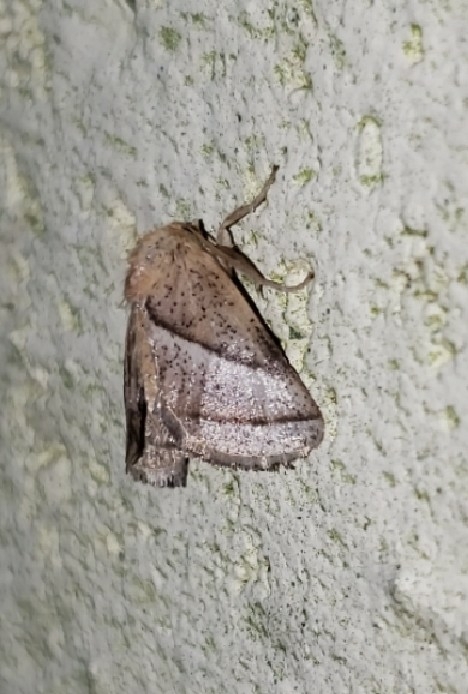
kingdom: Animalia
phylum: Arthropoda
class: Insecta
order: Lepidoptera
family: Limacodidae
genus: Natada
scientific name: Natada nasoni
